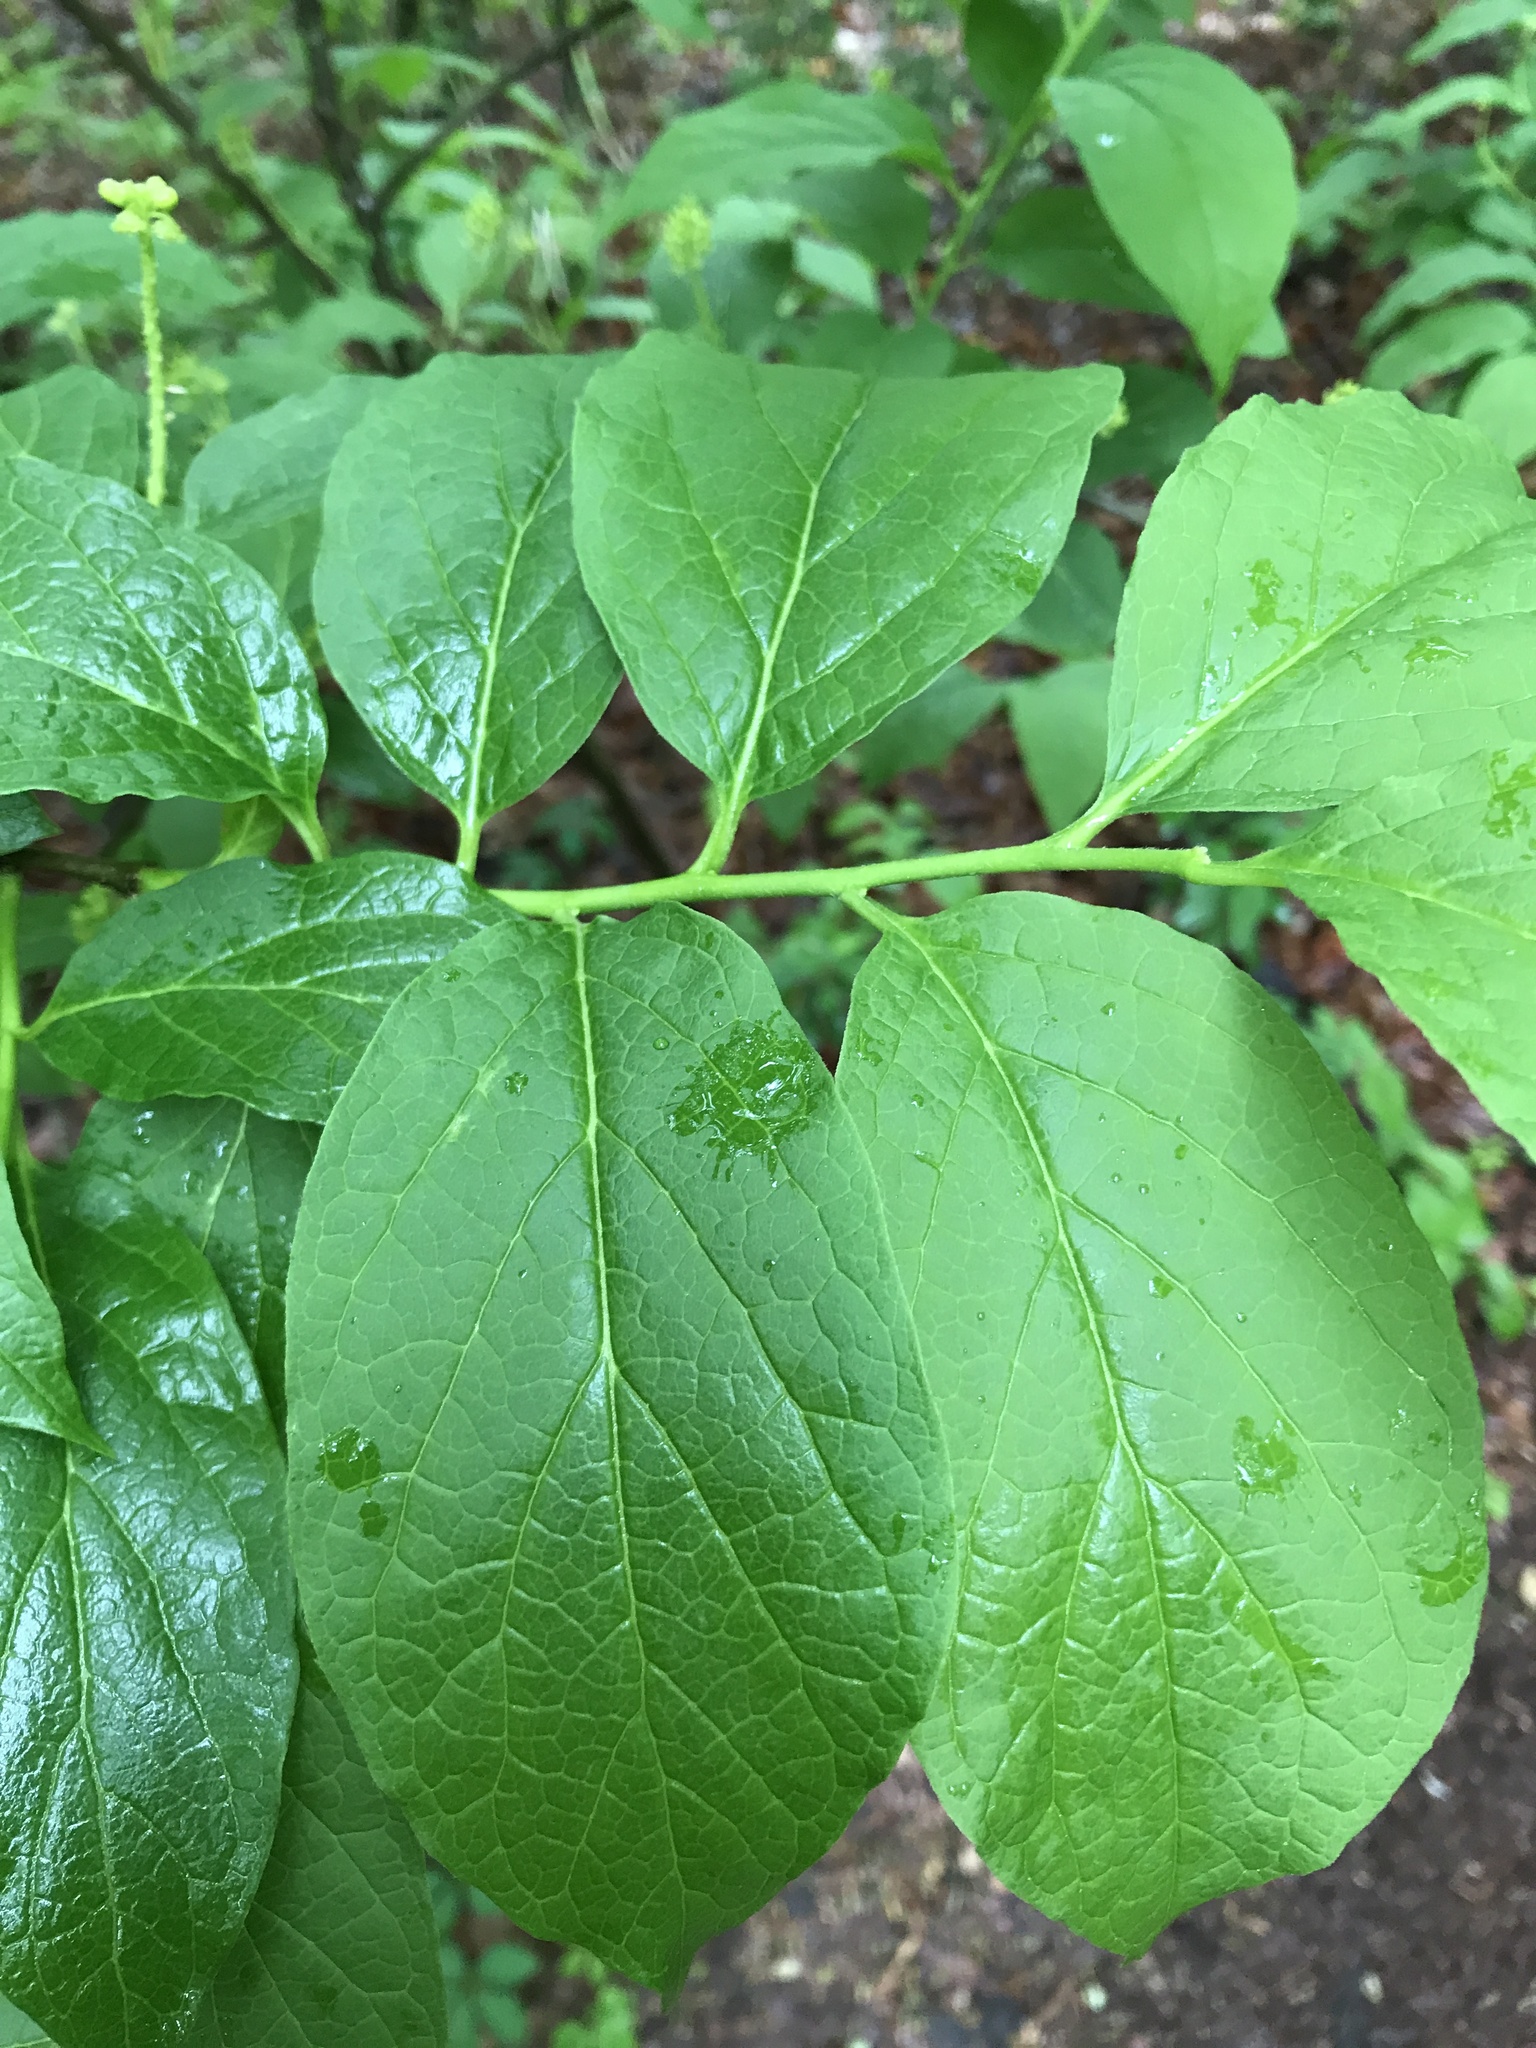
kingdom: Plantae
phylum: Tracheophyta
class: Magnoliopsida
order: Santalales
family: Cervantesiaceae
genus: Pyrularia
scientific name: Pyrularia pubera
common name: Oilnut
